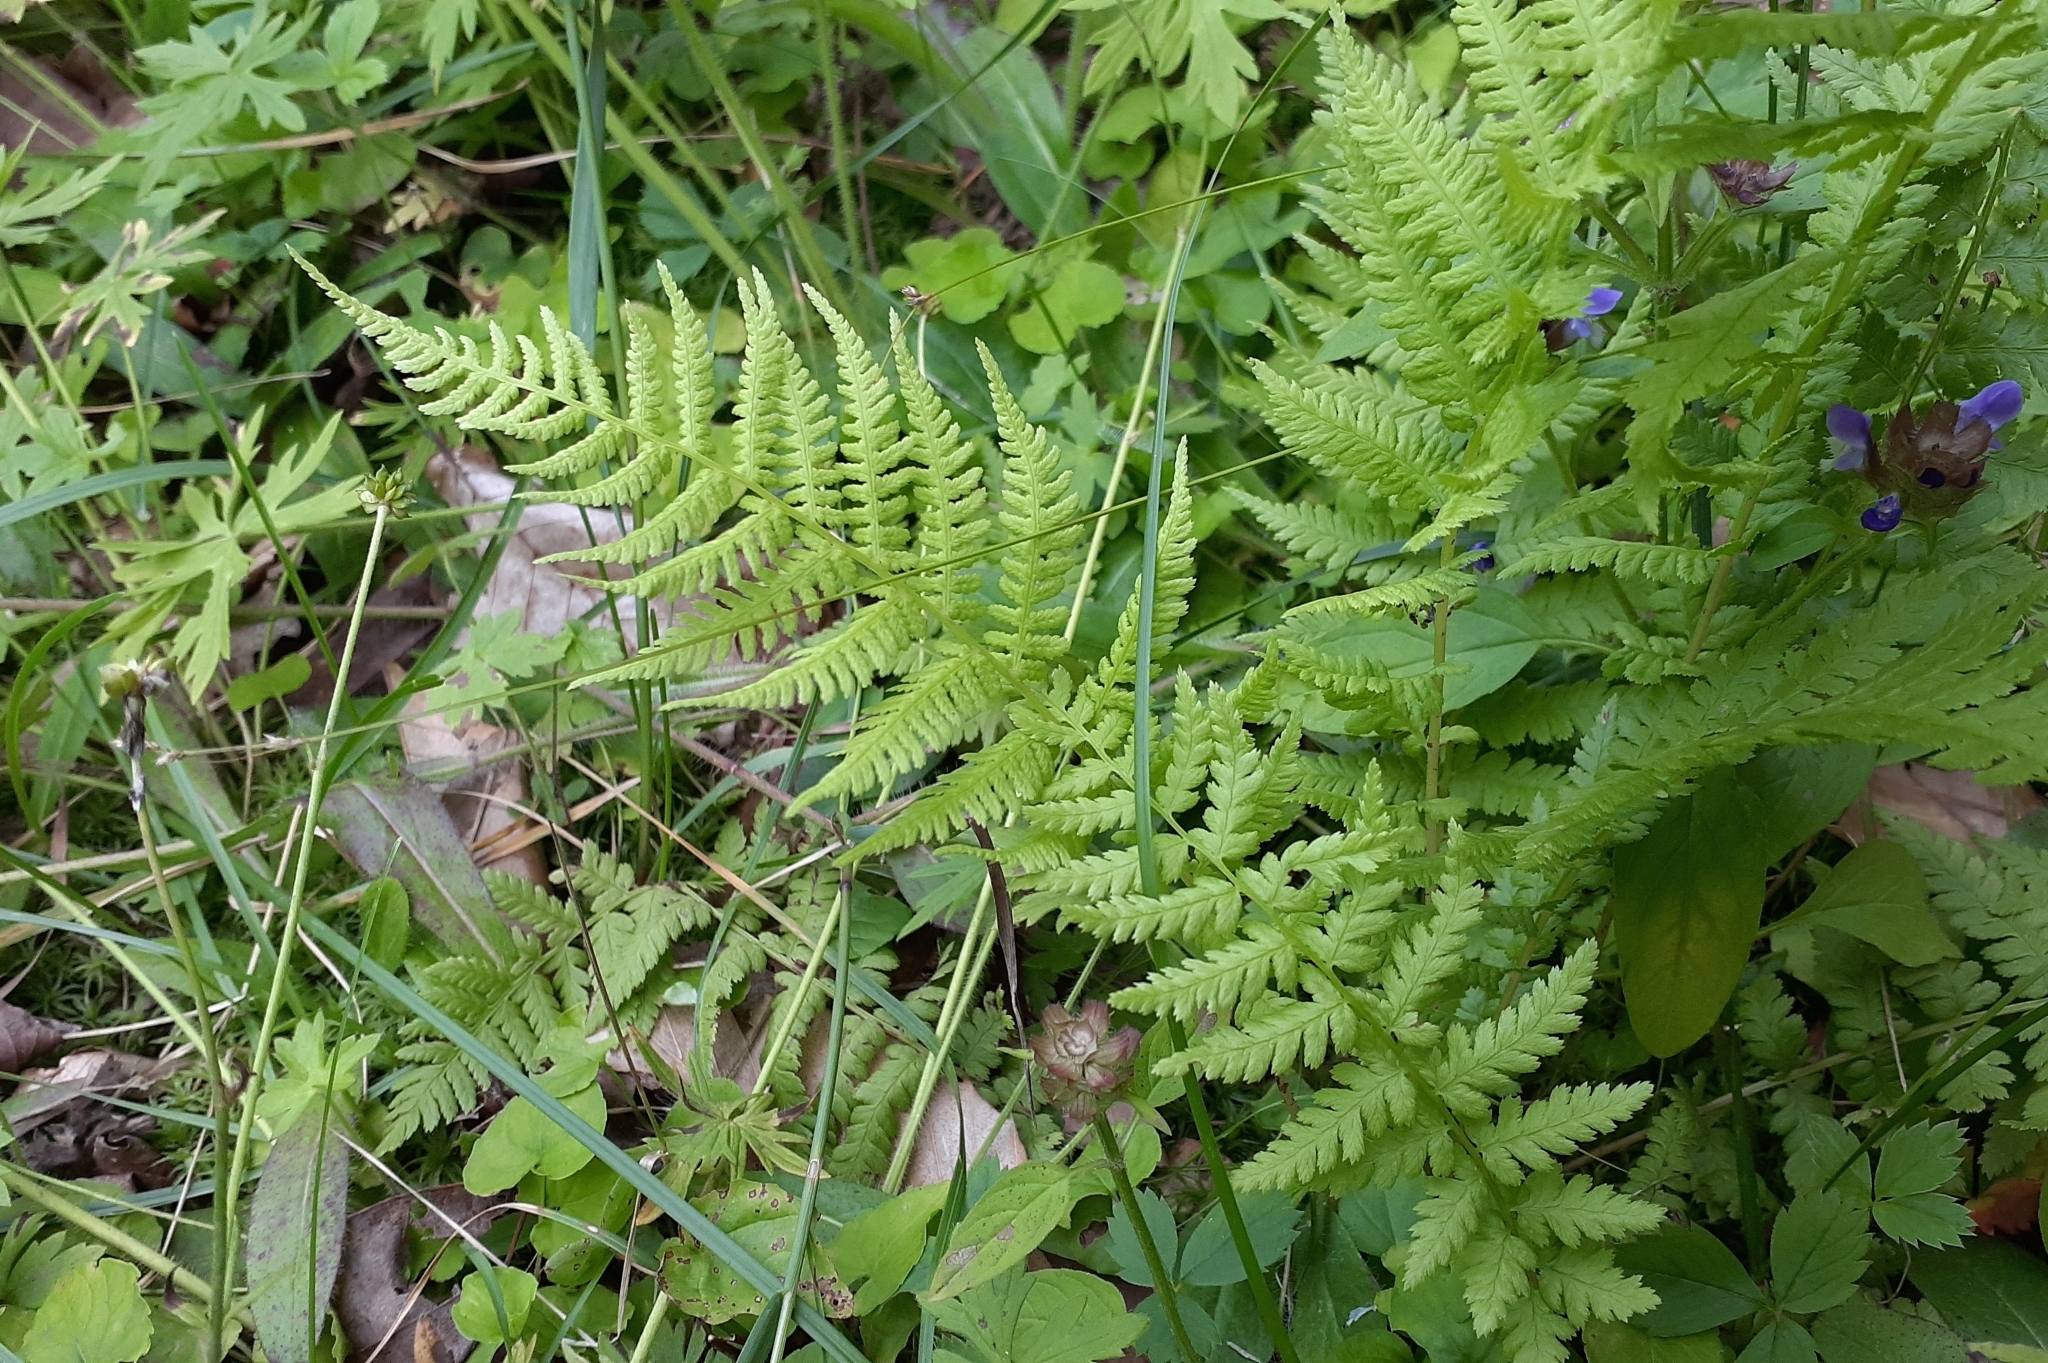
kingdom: Plantae
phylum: Tracheophyta
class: Polypodiopsida
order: Polypodiales
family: Athyriaceae
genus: Athyrium
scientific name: Athyrium angustum
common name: Northern lady fern
